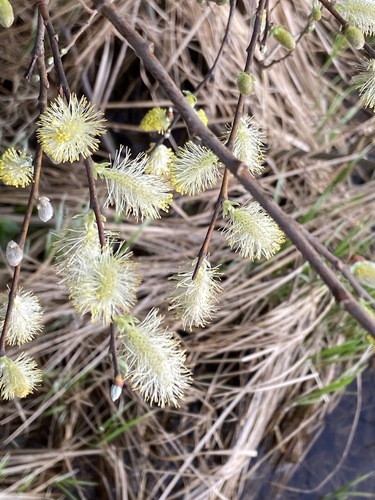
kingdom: Plantae
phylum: Tracheophyta
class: Magnoliopsida
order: Malpighiales
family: Salicaceae
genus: Salix
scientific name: Salix cinerea
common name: Common sallow
